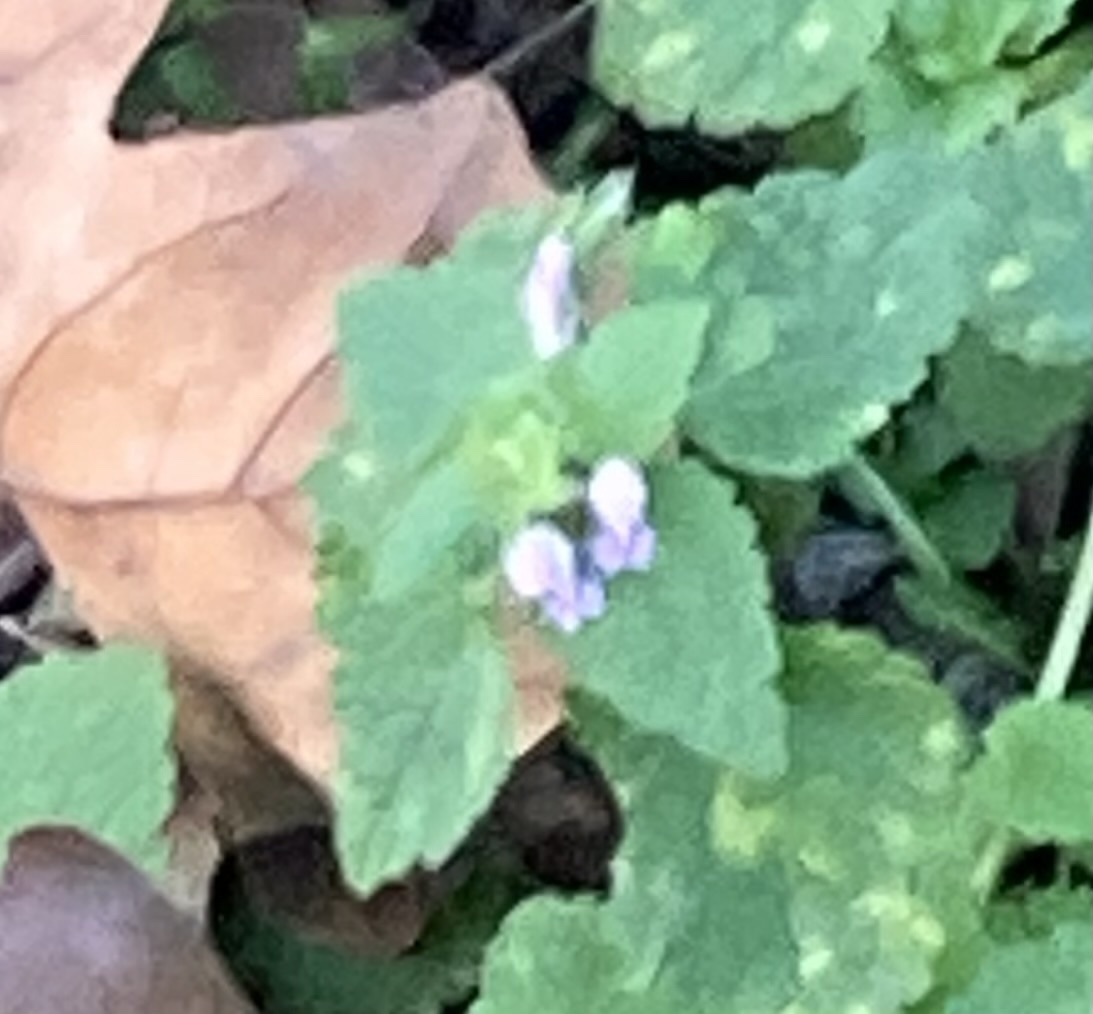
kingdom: Plantae
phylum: Tracheophyta
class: Magnoliopsida
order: Lamiales
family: Lamiaceae
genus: Lamium
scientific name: Lamium purpureum
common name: Red dead-nettle
